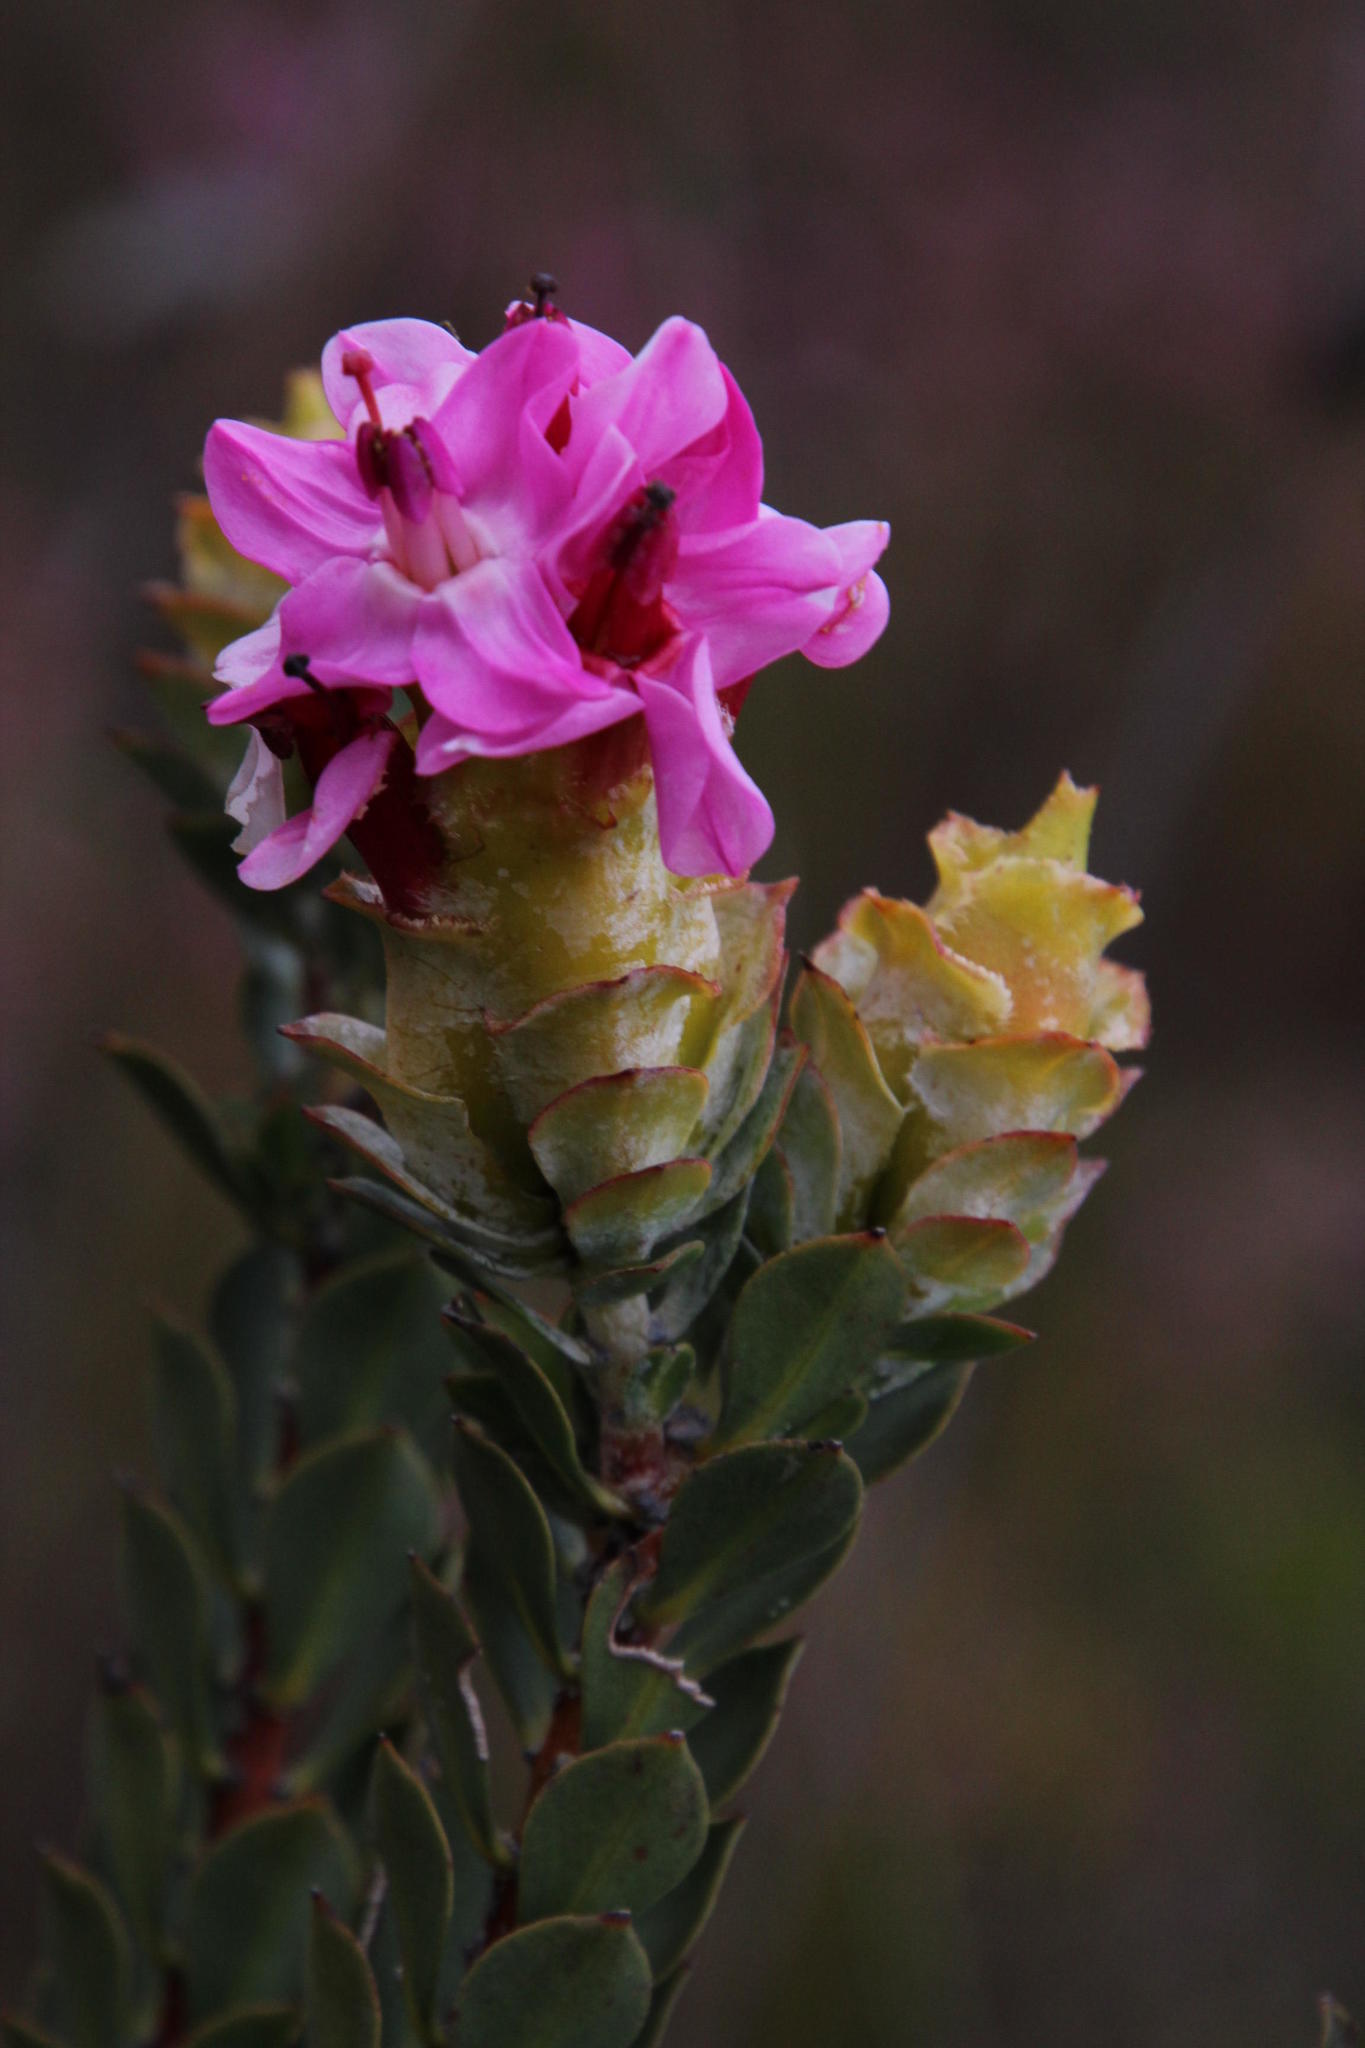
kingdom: Plantae
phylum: Tracheophyta
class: Magnoliopsida
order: Myrtales
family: Penaeaceae
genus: Saltera
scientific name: Saltera sarcocolla
